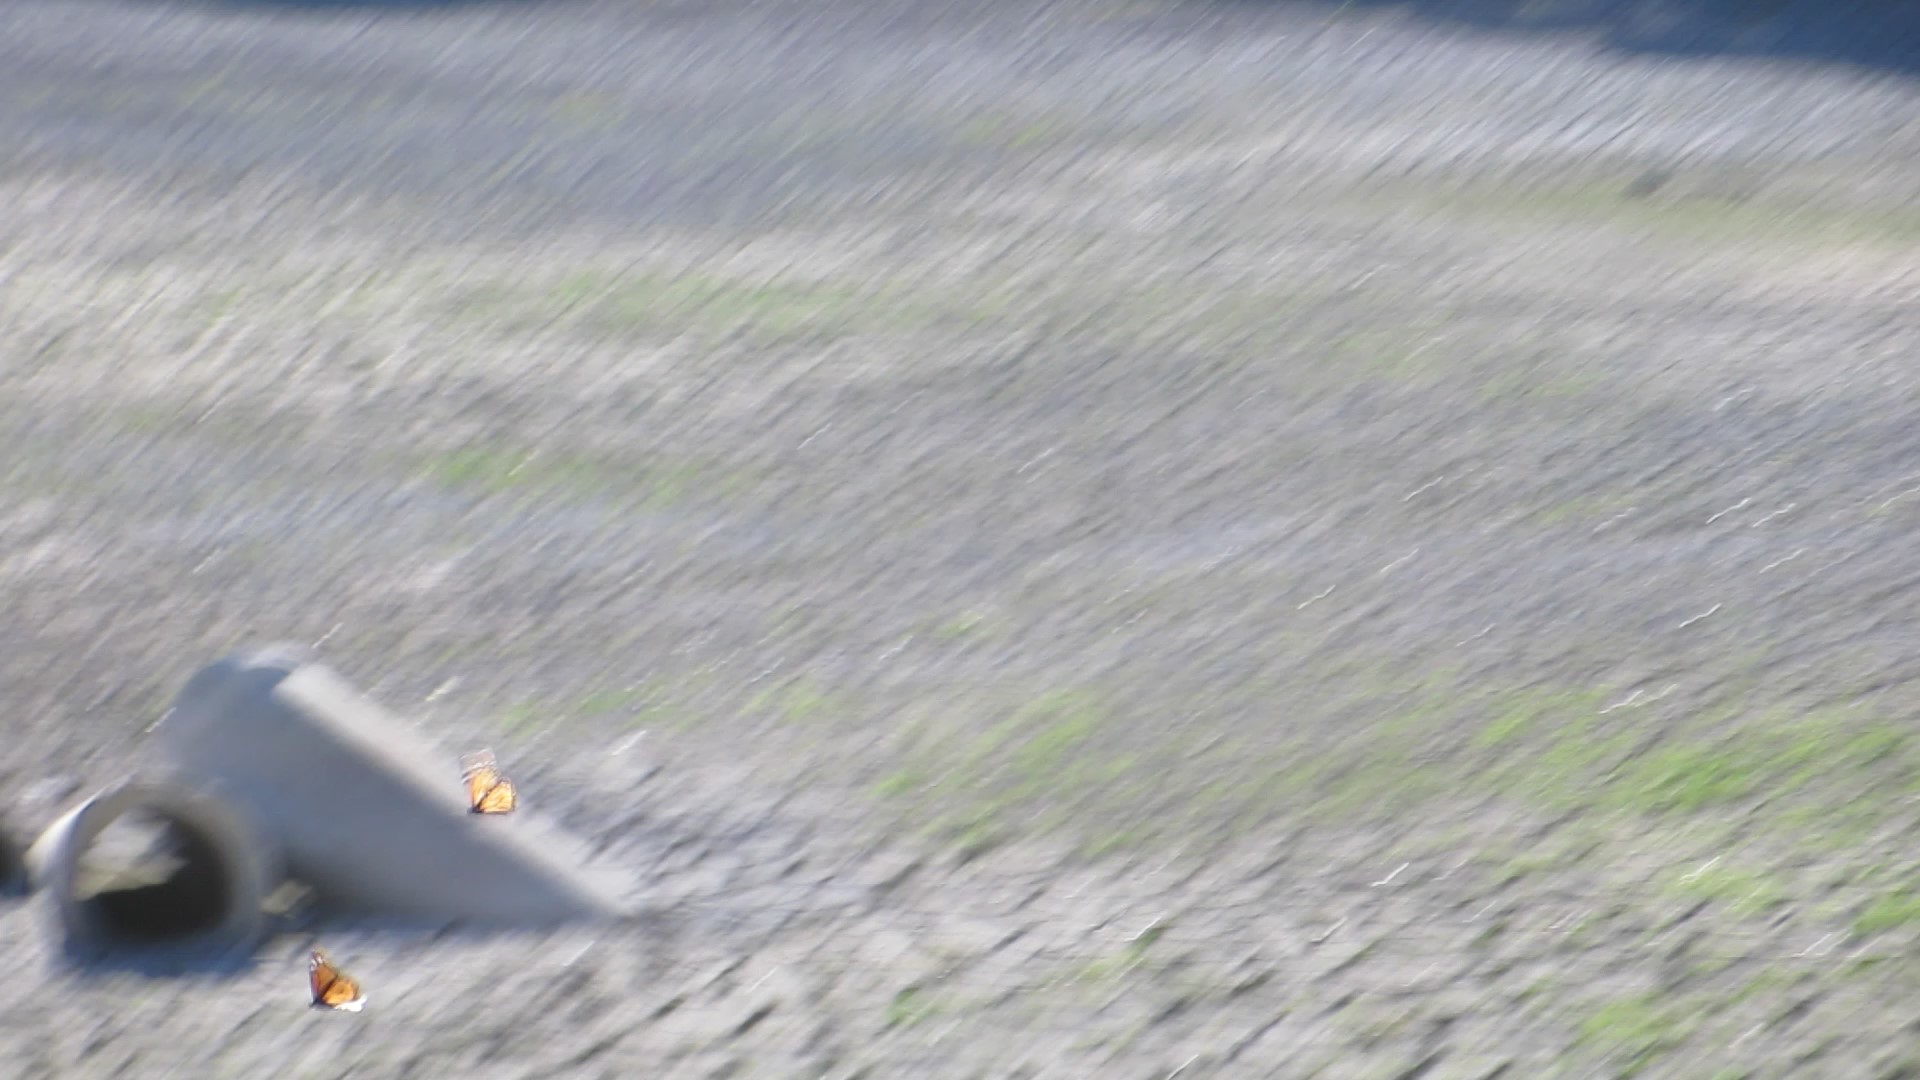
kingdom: Animalia
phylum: Arthropoda
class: Insecta
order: Lepidoptera
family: Nymphalidae
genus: Danaus
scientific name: Danaus plexippus
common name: Monarch
